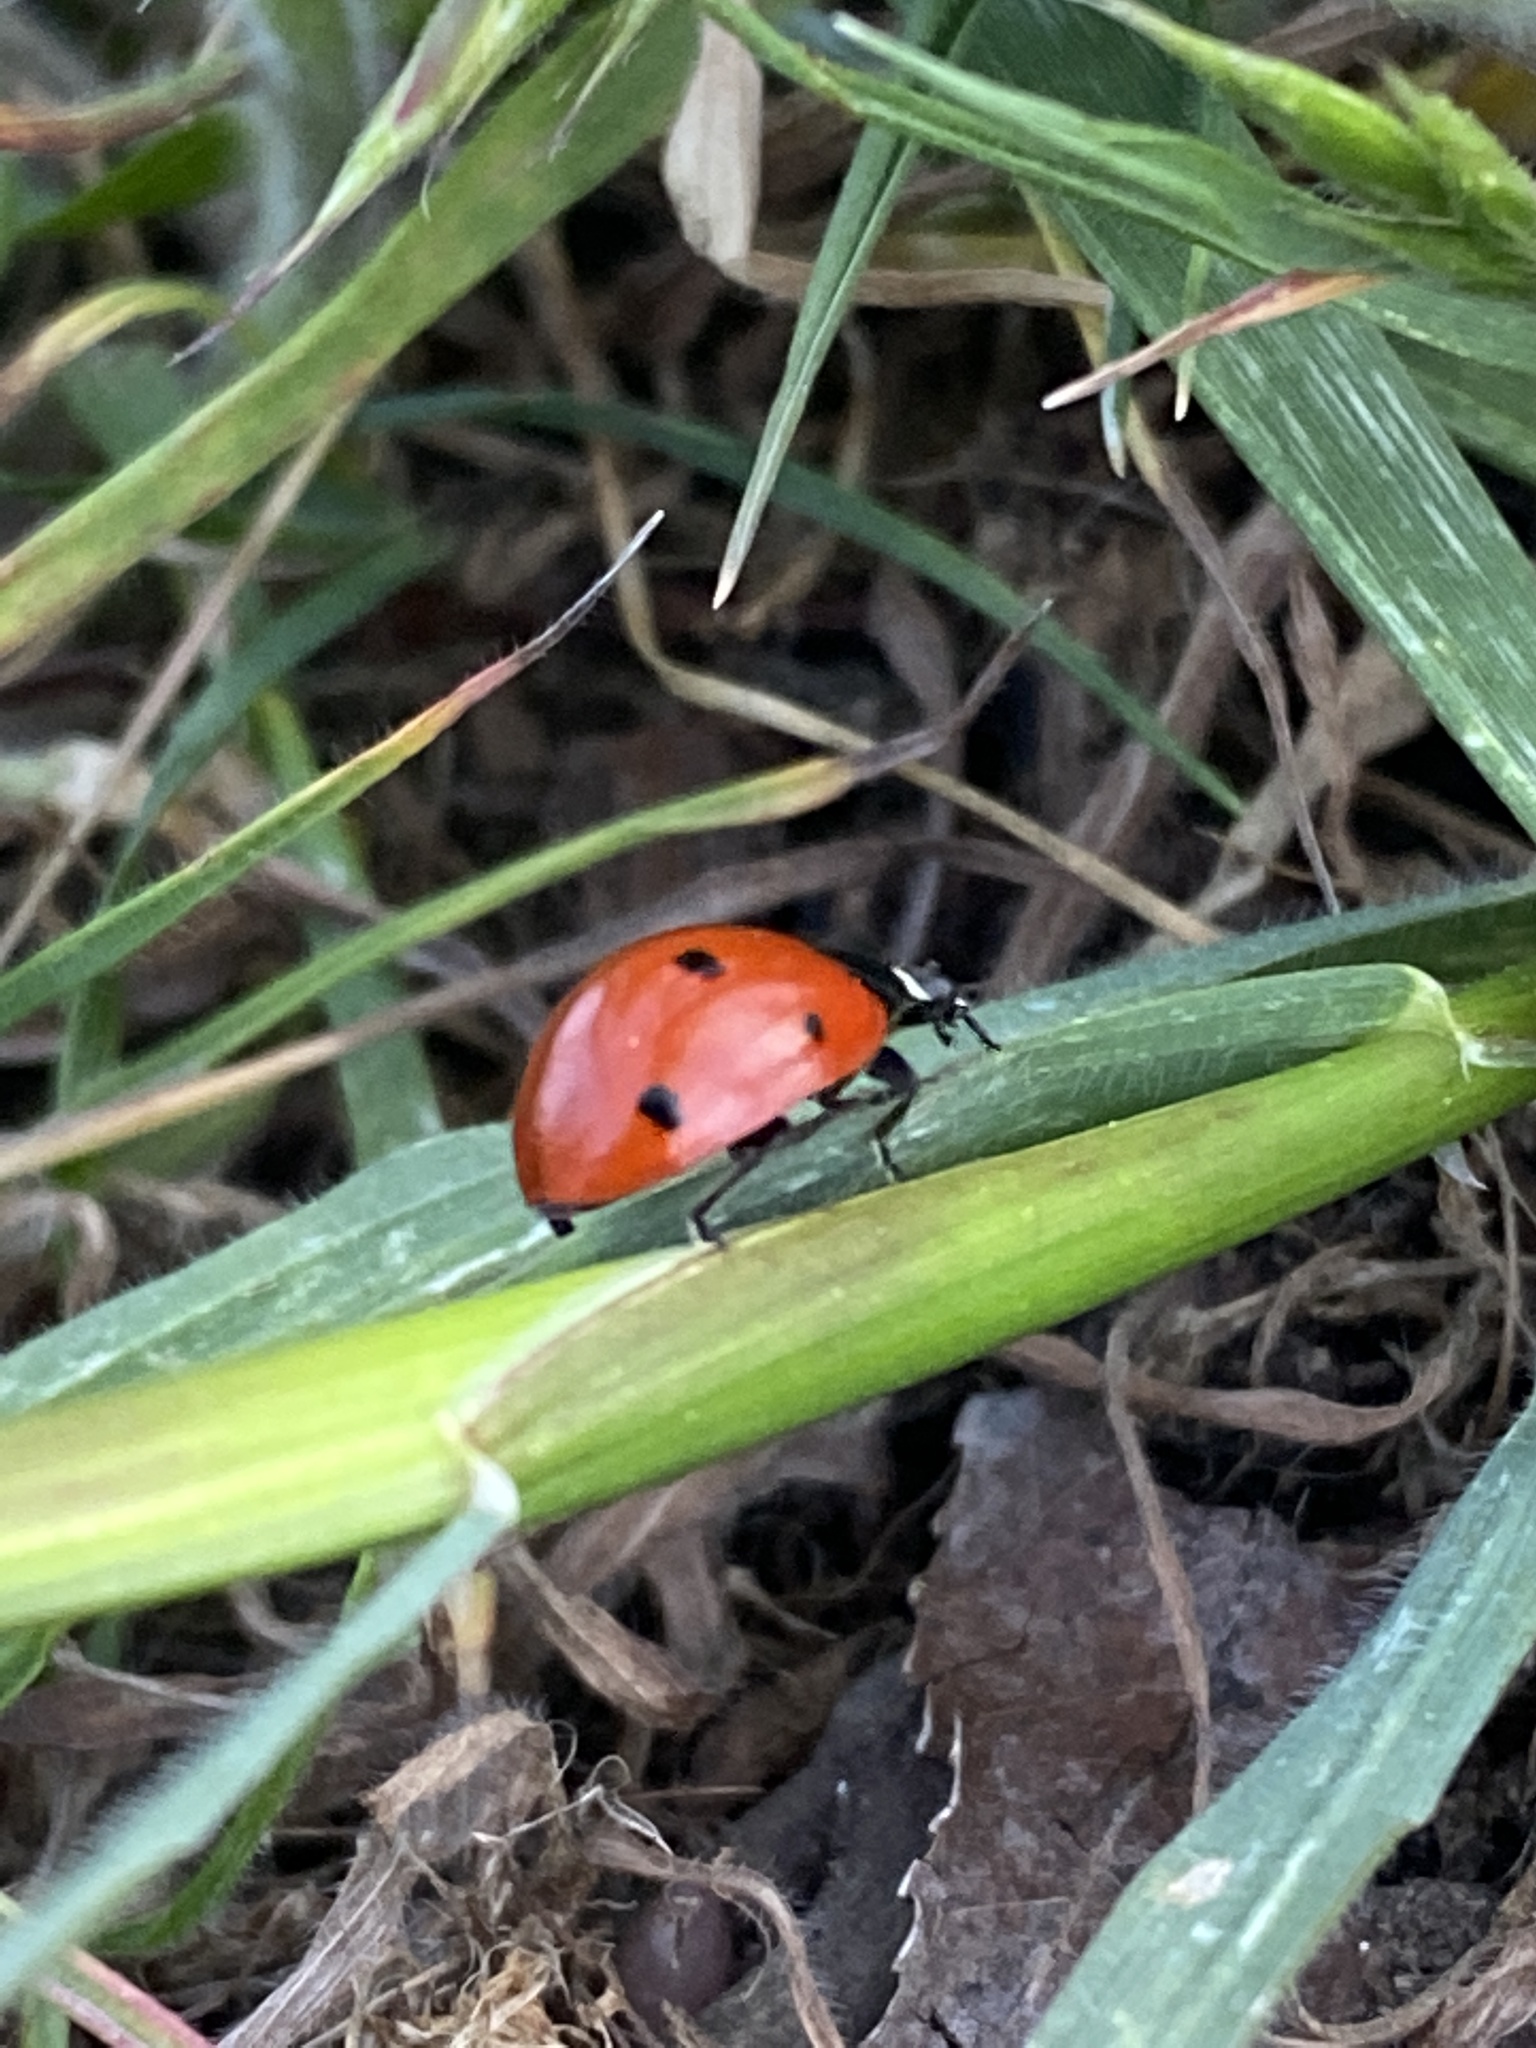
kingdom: Animalia
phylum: Arthropoda
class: Insecta
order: Coleoptera
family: Coccinellidae
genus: Coccinella
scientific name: Coccinella septempunctata
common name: Sevenspotted lady beetle
